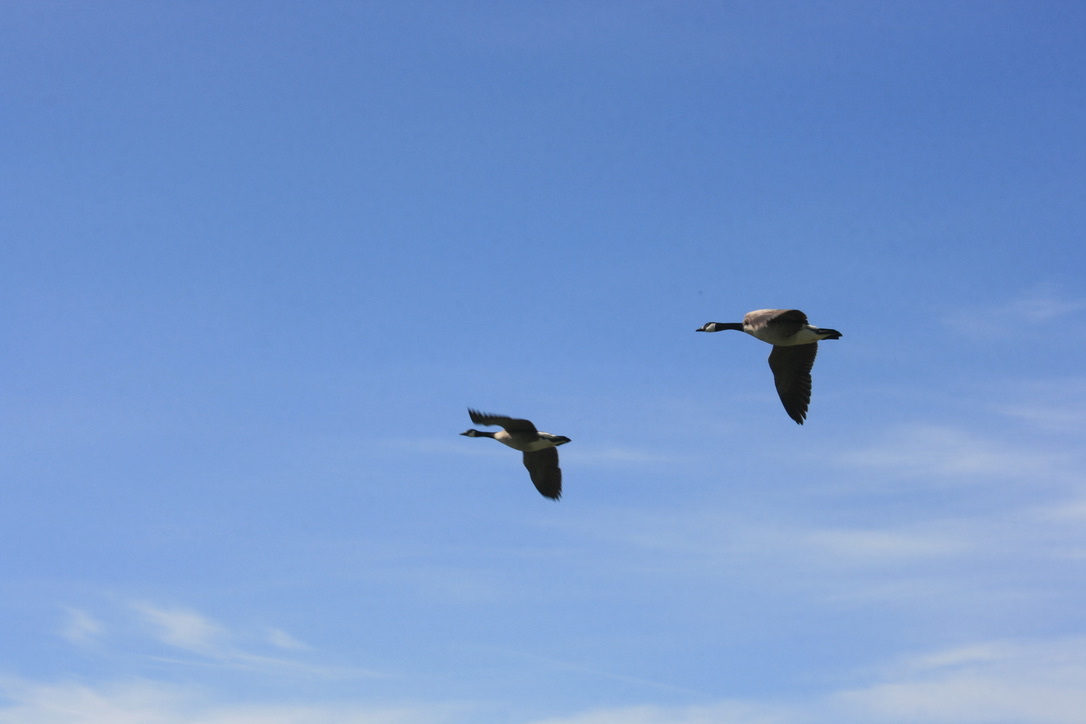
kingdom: Animalia
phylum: Chordata
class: Aves
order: Anseriformes
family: Anatidae
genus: Branta
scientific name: Branta canadensis
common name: Canada goose
